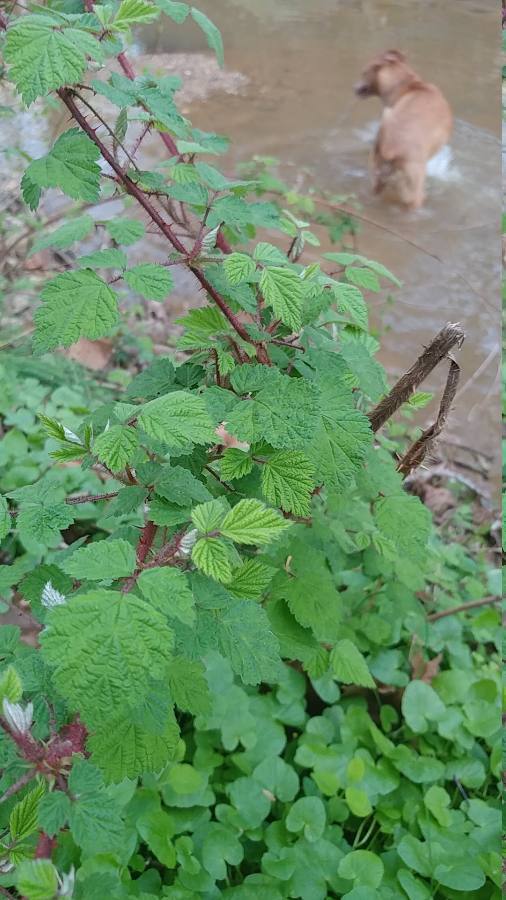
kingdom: Plantae
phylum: Tracheophyta
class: Magnoliopsida
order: Rosales
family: Rosaceae
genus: Rubus
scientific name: Rubus phoenicolasius
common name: Japanese wineberry
